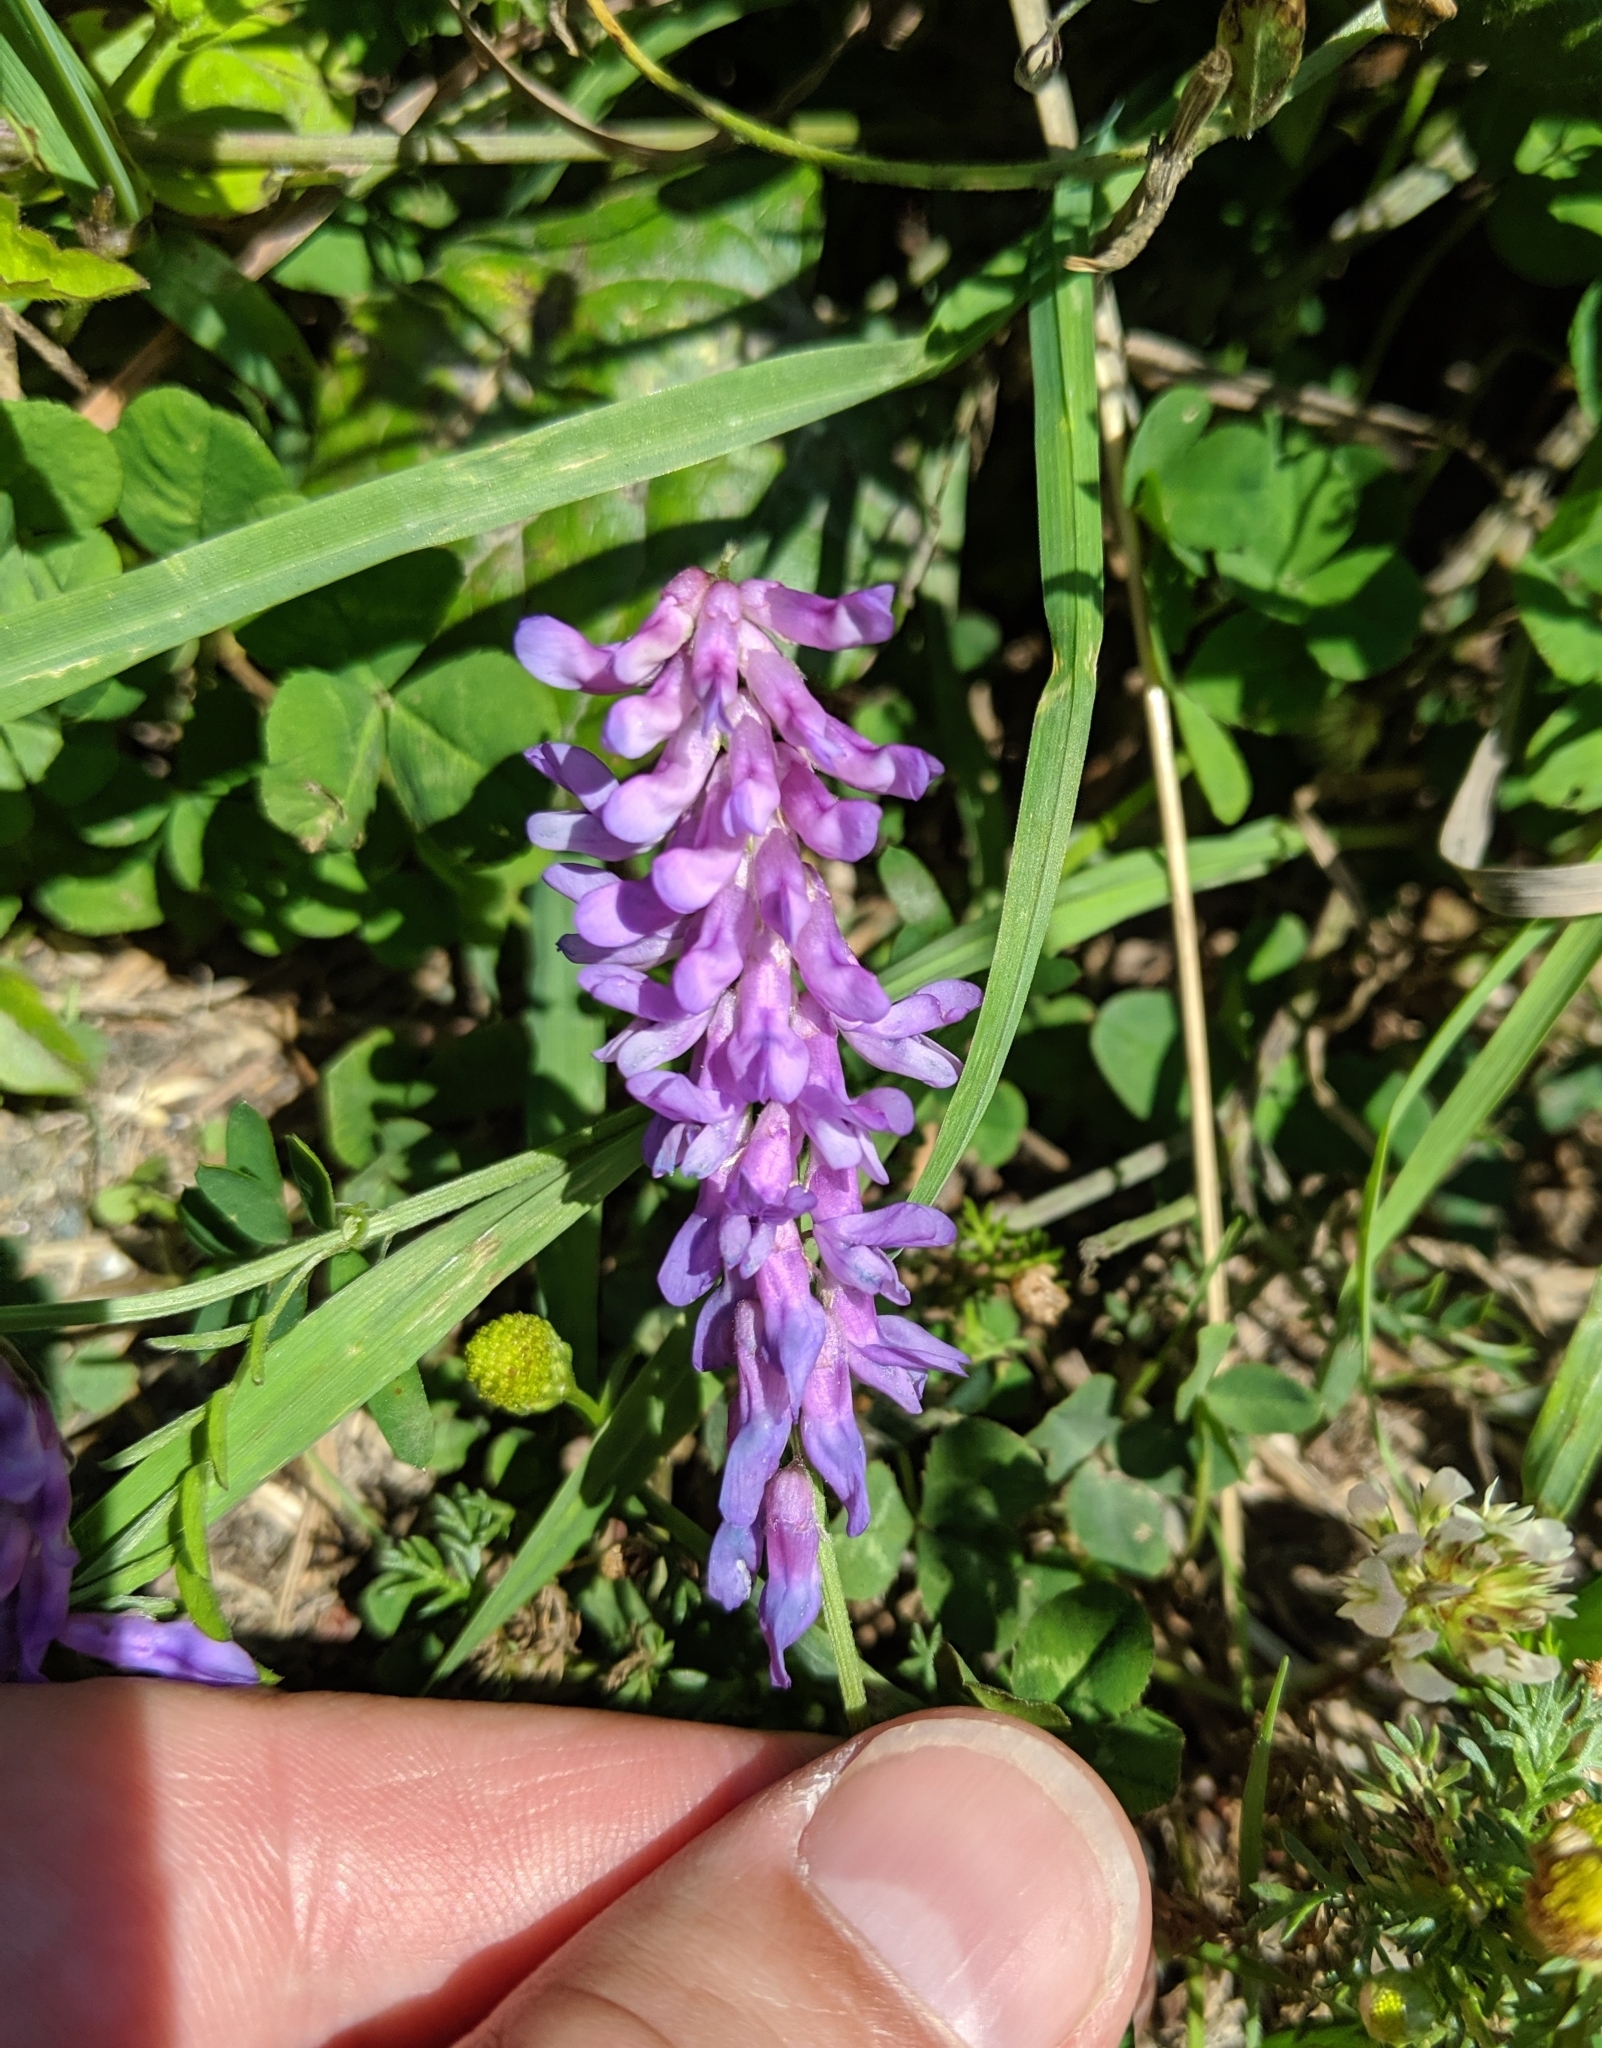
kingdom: Plantae
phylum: Tracheophyta
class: Magnoliopsida
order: Fabales
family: Fabaceae
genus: Vicia
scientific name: Vicia cracca
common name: Bird vetch
